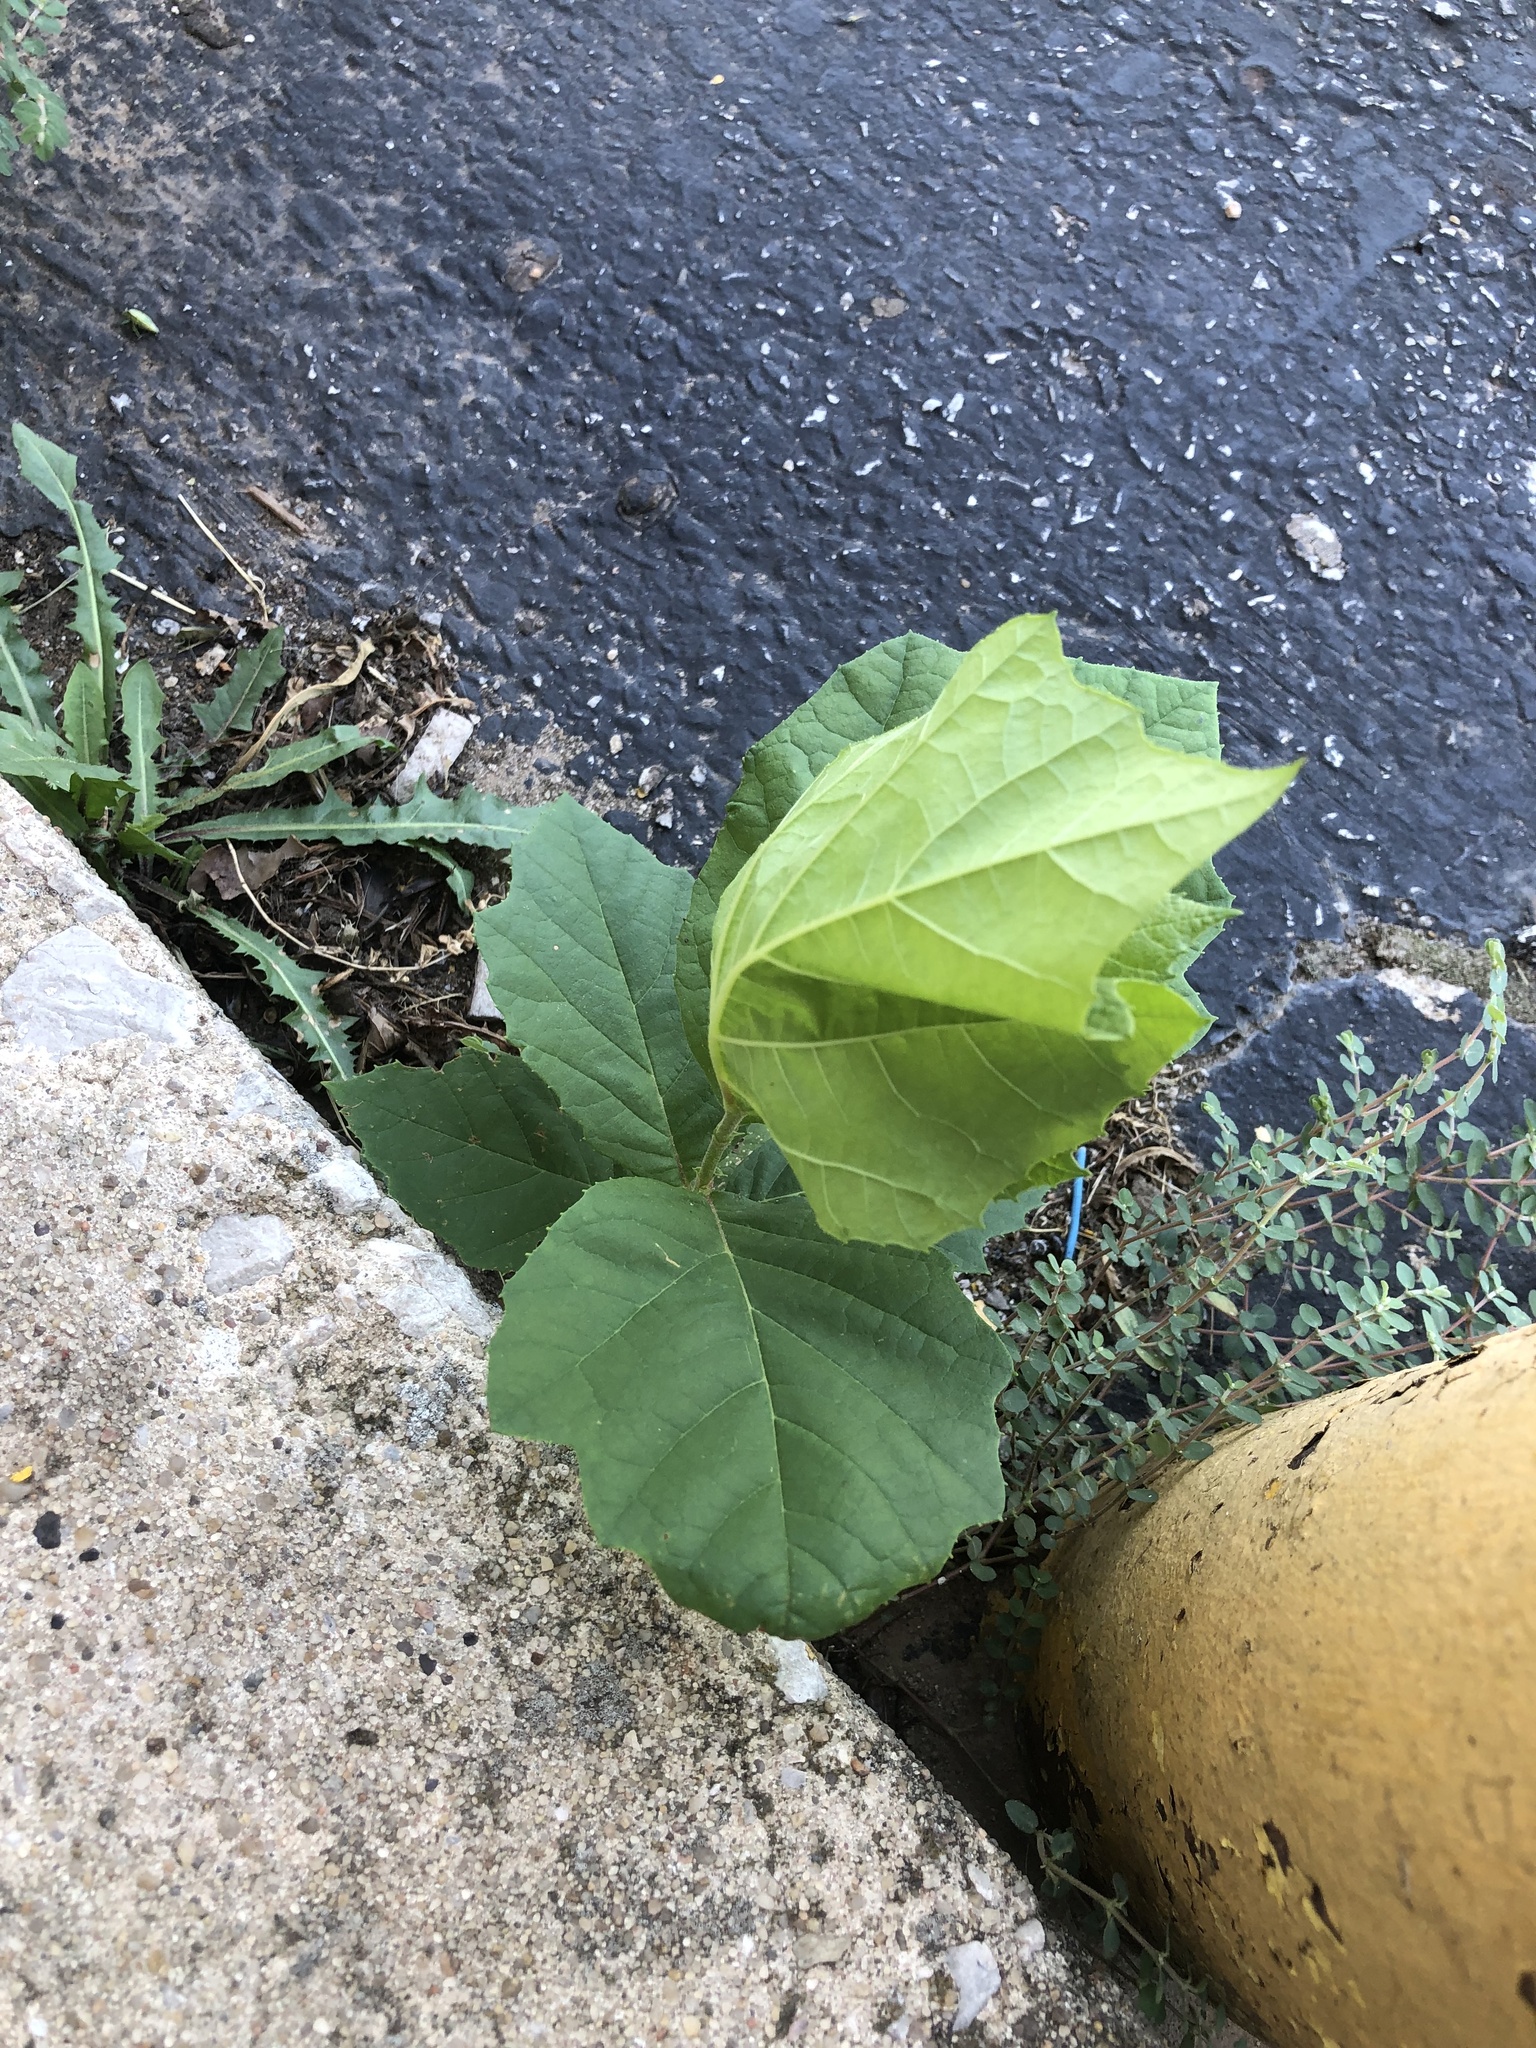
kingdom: Plantae
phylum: Tracheophyta
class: Magnoliopsida
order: Proteales
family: Platanaceae
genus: Platanus
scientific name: Platanus occidentalis
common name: American sycamore
